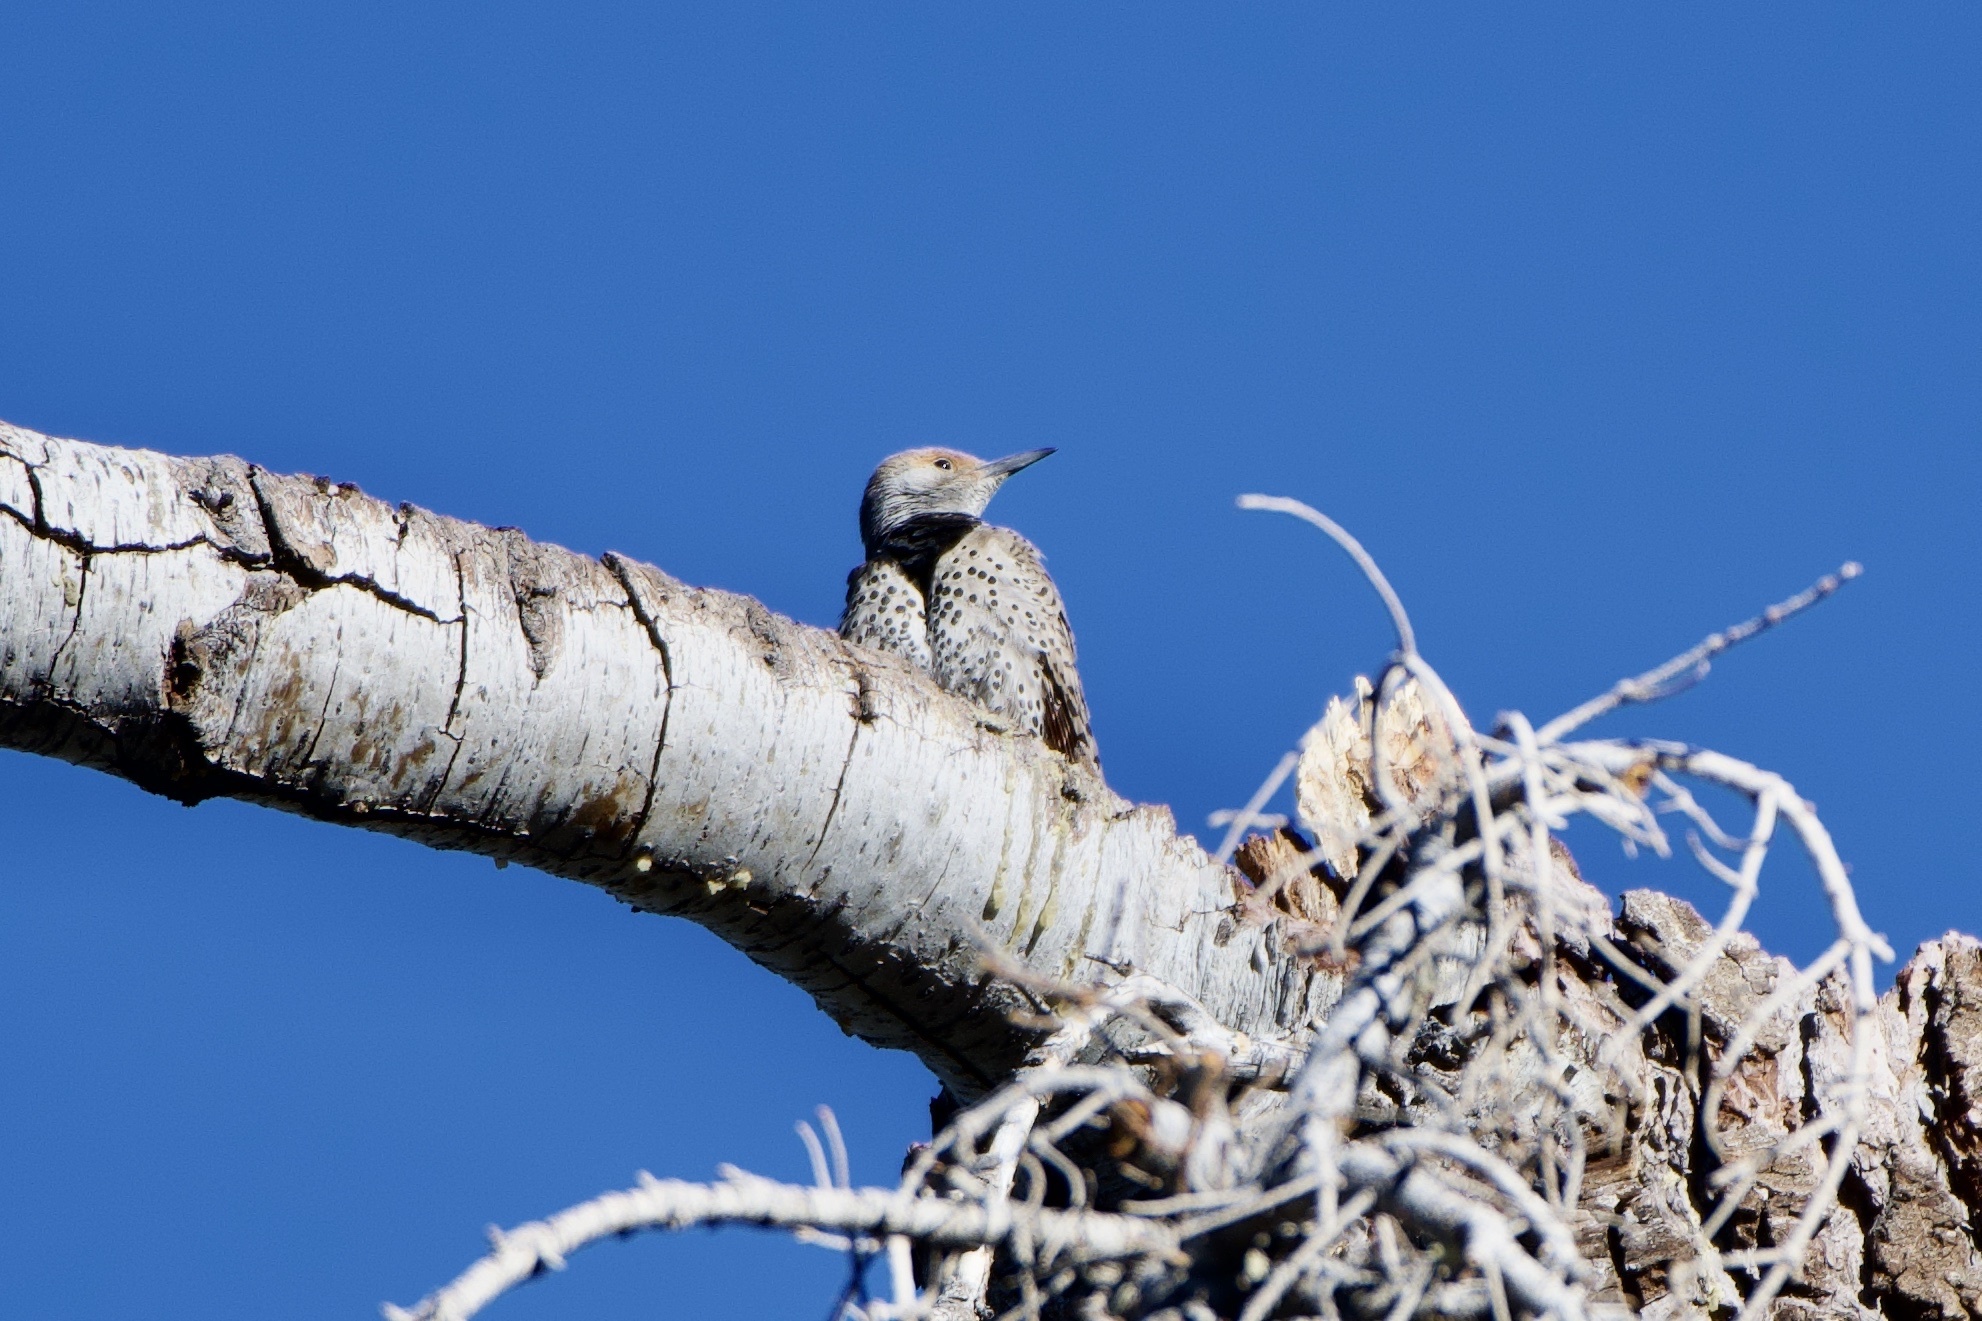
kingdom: Animalia
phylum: Chordata
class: Aves
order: Piciformes
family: Picidae
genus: Colaptes
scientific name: Colaptes auratus
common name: Northern flicker
